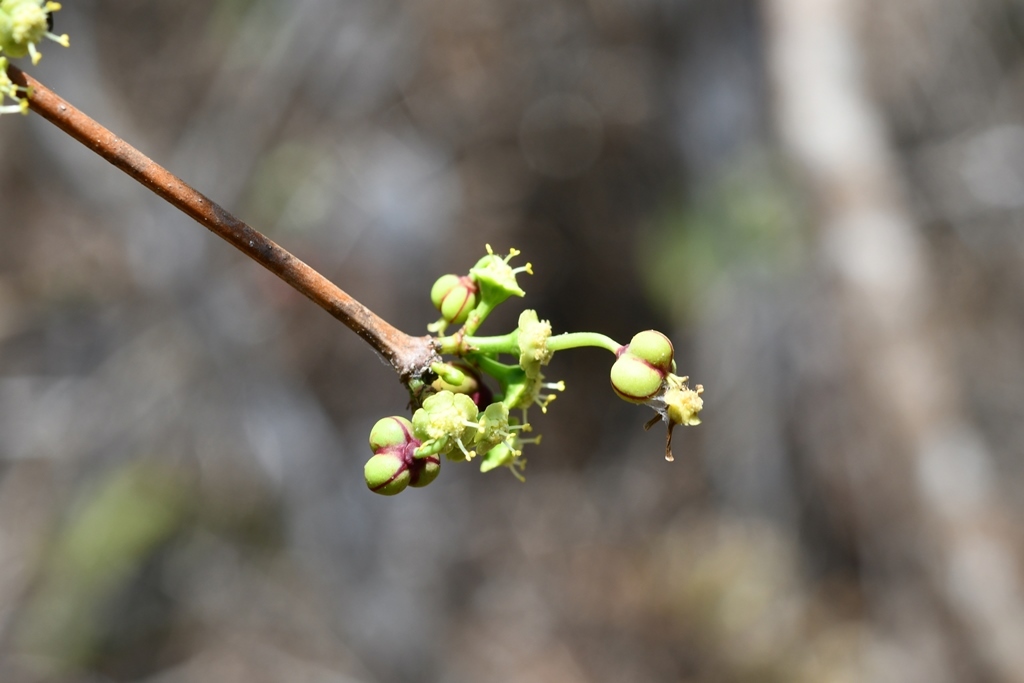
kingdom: Plantae
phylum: Tracheophyta
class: Magnoliopsida
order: Malpighiales
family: Euphorbiaceae
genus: Euphorbia
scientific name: Euphorbia schlechtendalii
